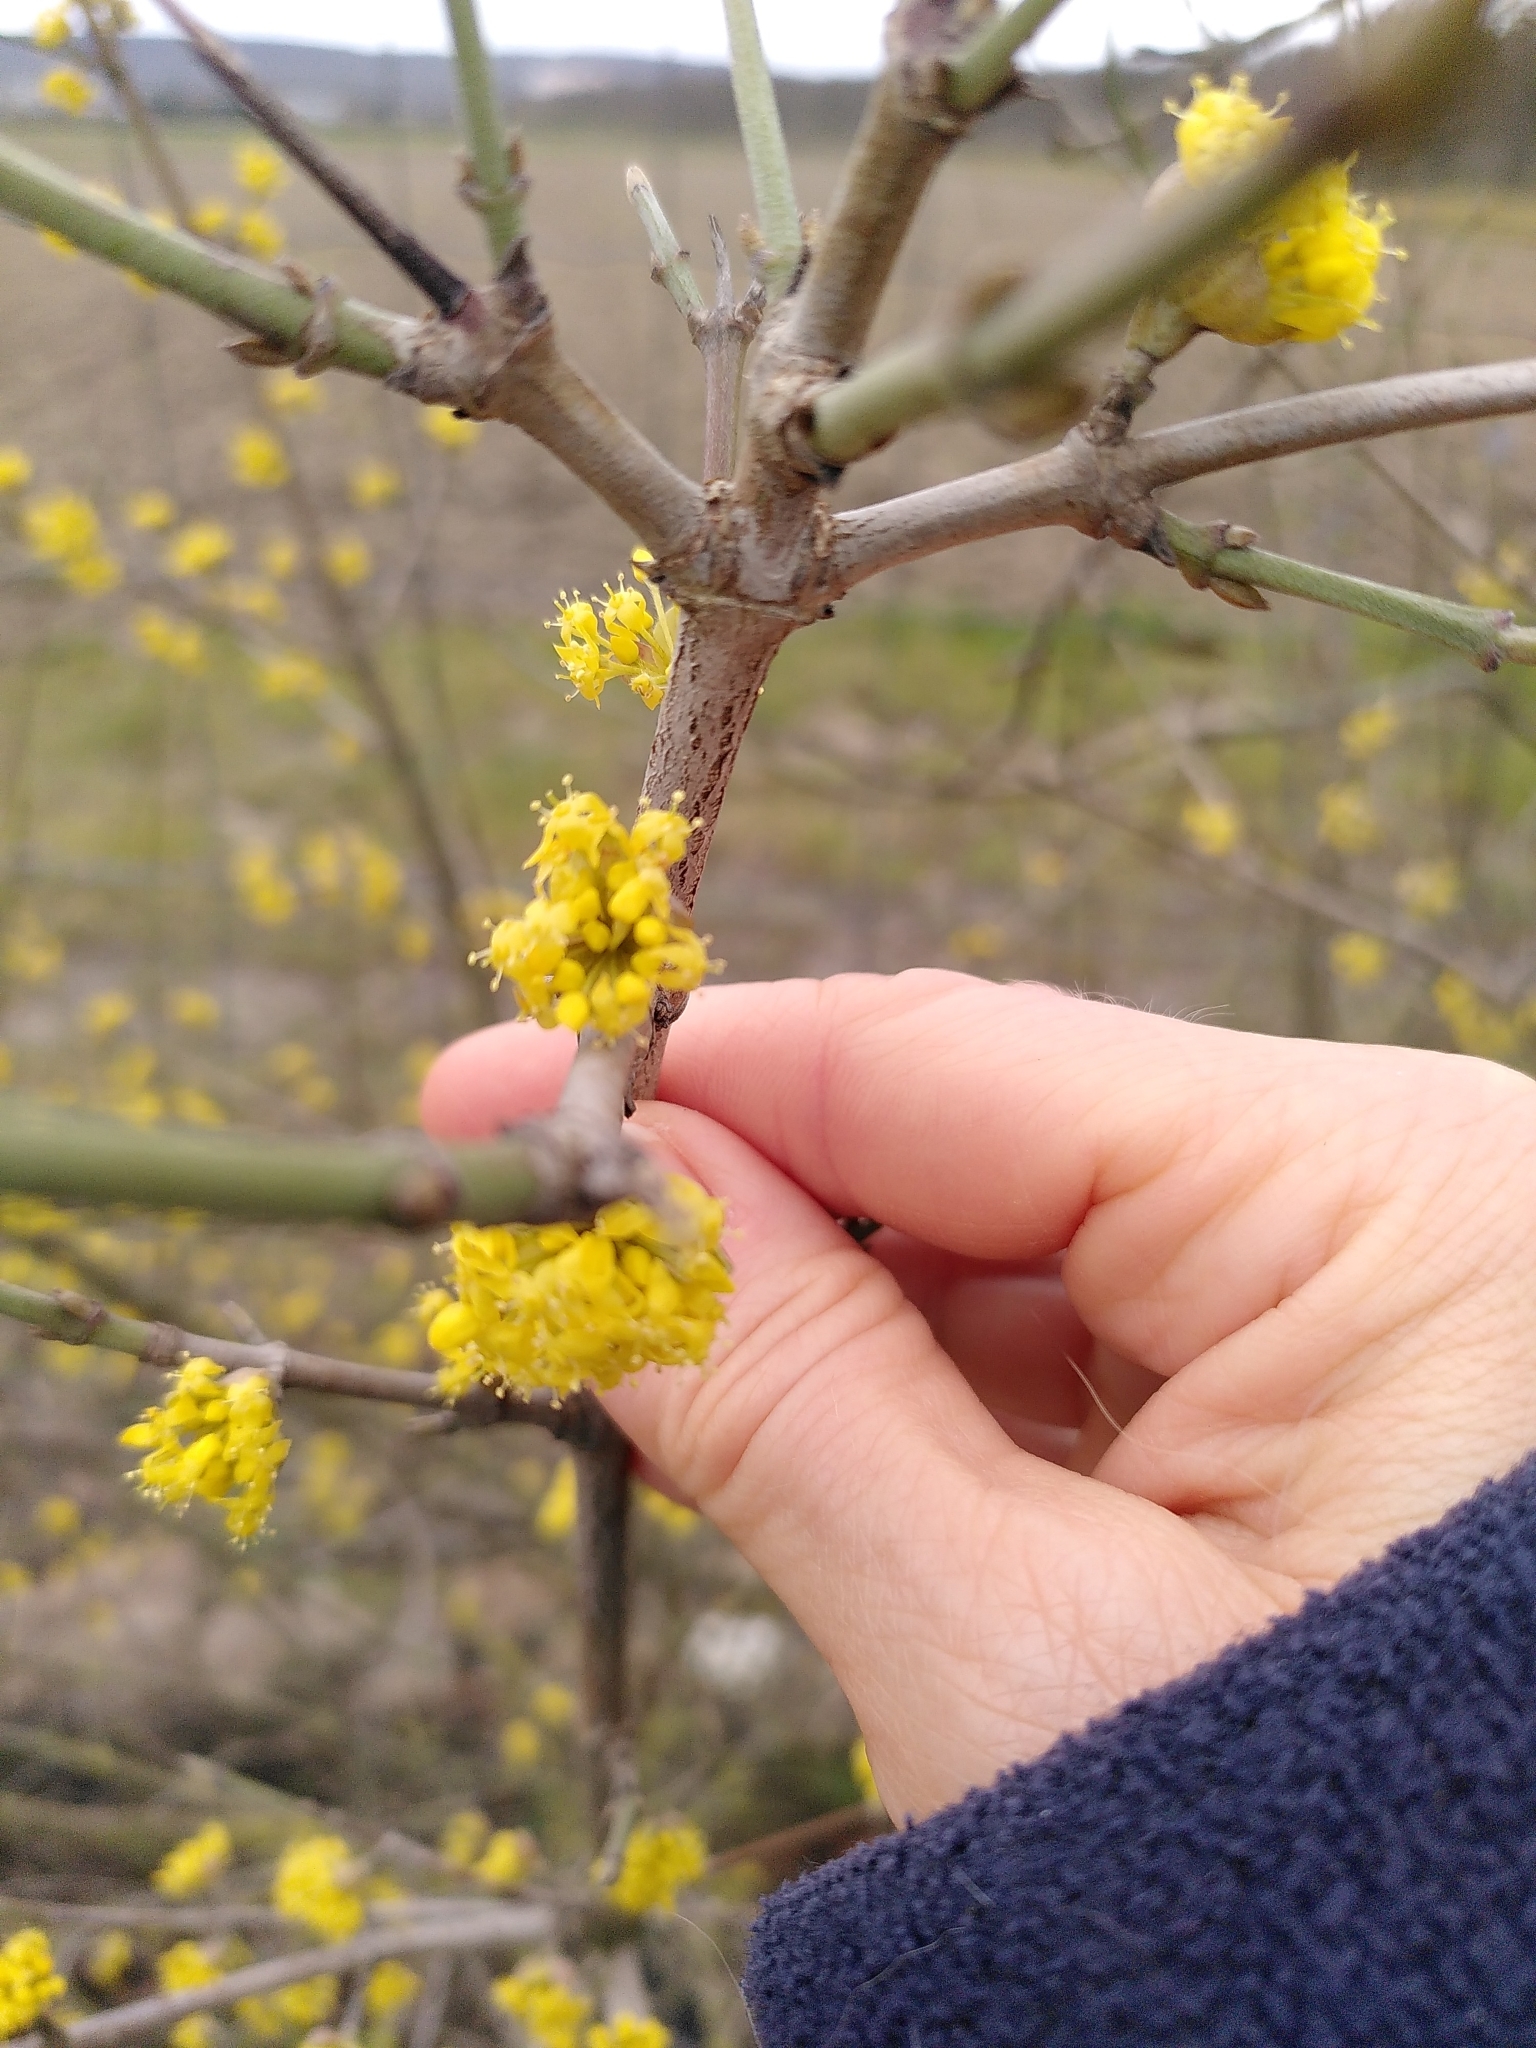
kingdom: Plantae
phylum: Tracheophyta
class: Magnoliopsida
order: Cornales
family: Cornaceae
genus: Cornus
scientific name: Cornus mas
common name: Cornelian-cherry
